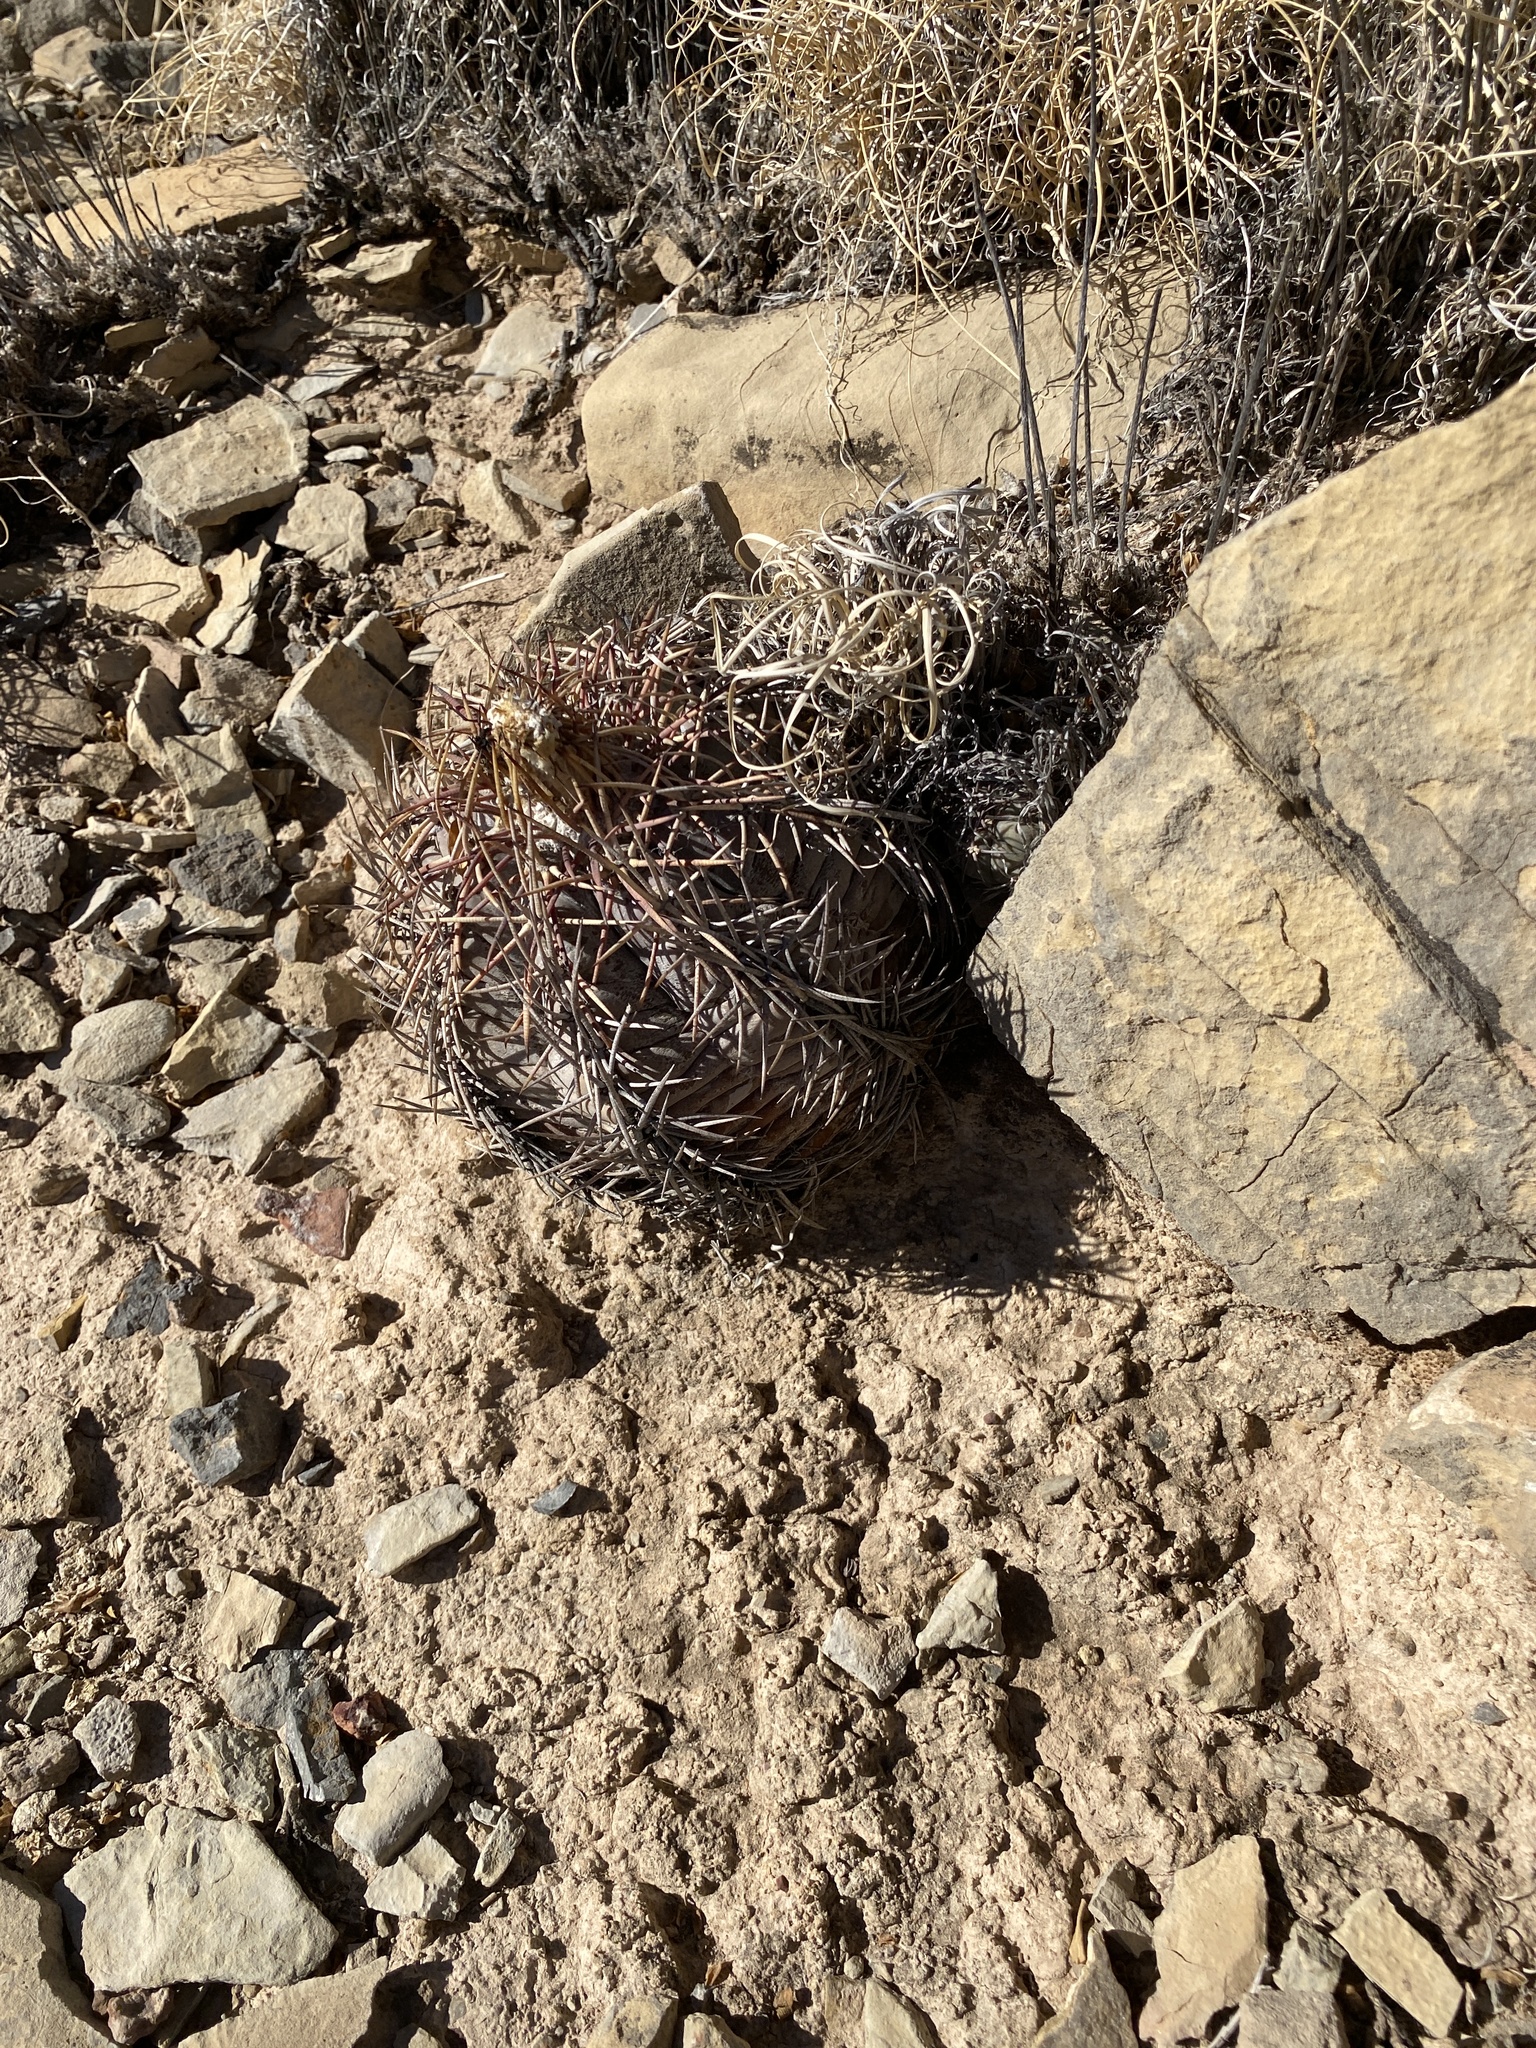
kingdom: Plantae
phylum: Tracheophyta
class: Magnoliopsida
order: Caryophyllales
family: Cactaceae
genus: Echinocactus
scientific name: Echinocactus horizonthalonius
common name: Devilshead
